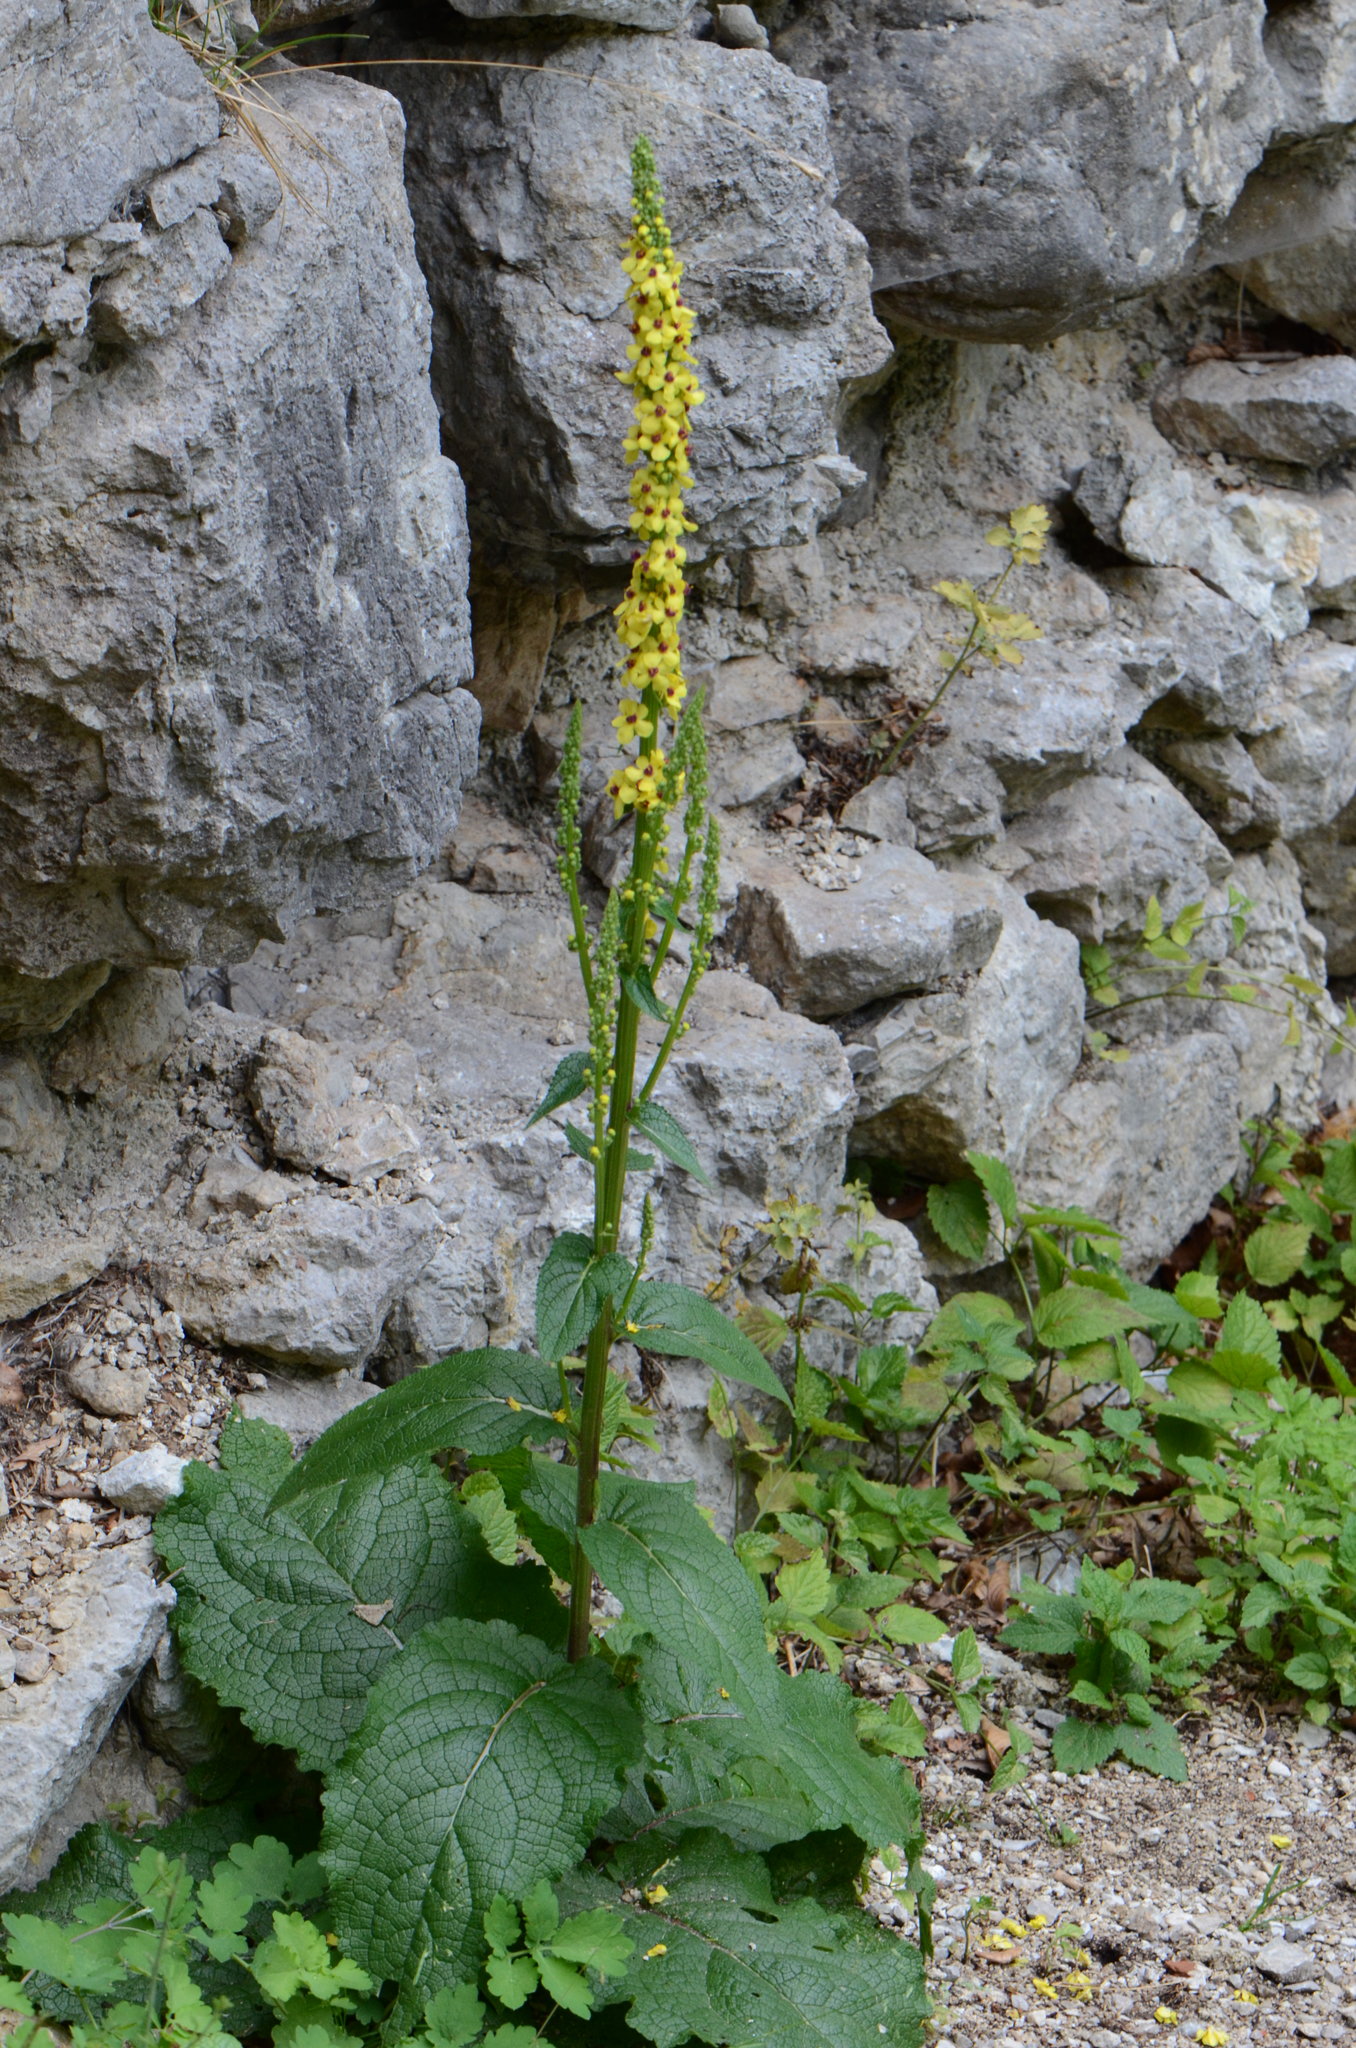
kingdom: Plantae
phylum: Tracheophyta
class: Magnoliopsida
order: Lamiales
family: Scrophulariaceae
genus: Verbascum
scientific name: Verbascum nigrum
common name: Dark mullein
